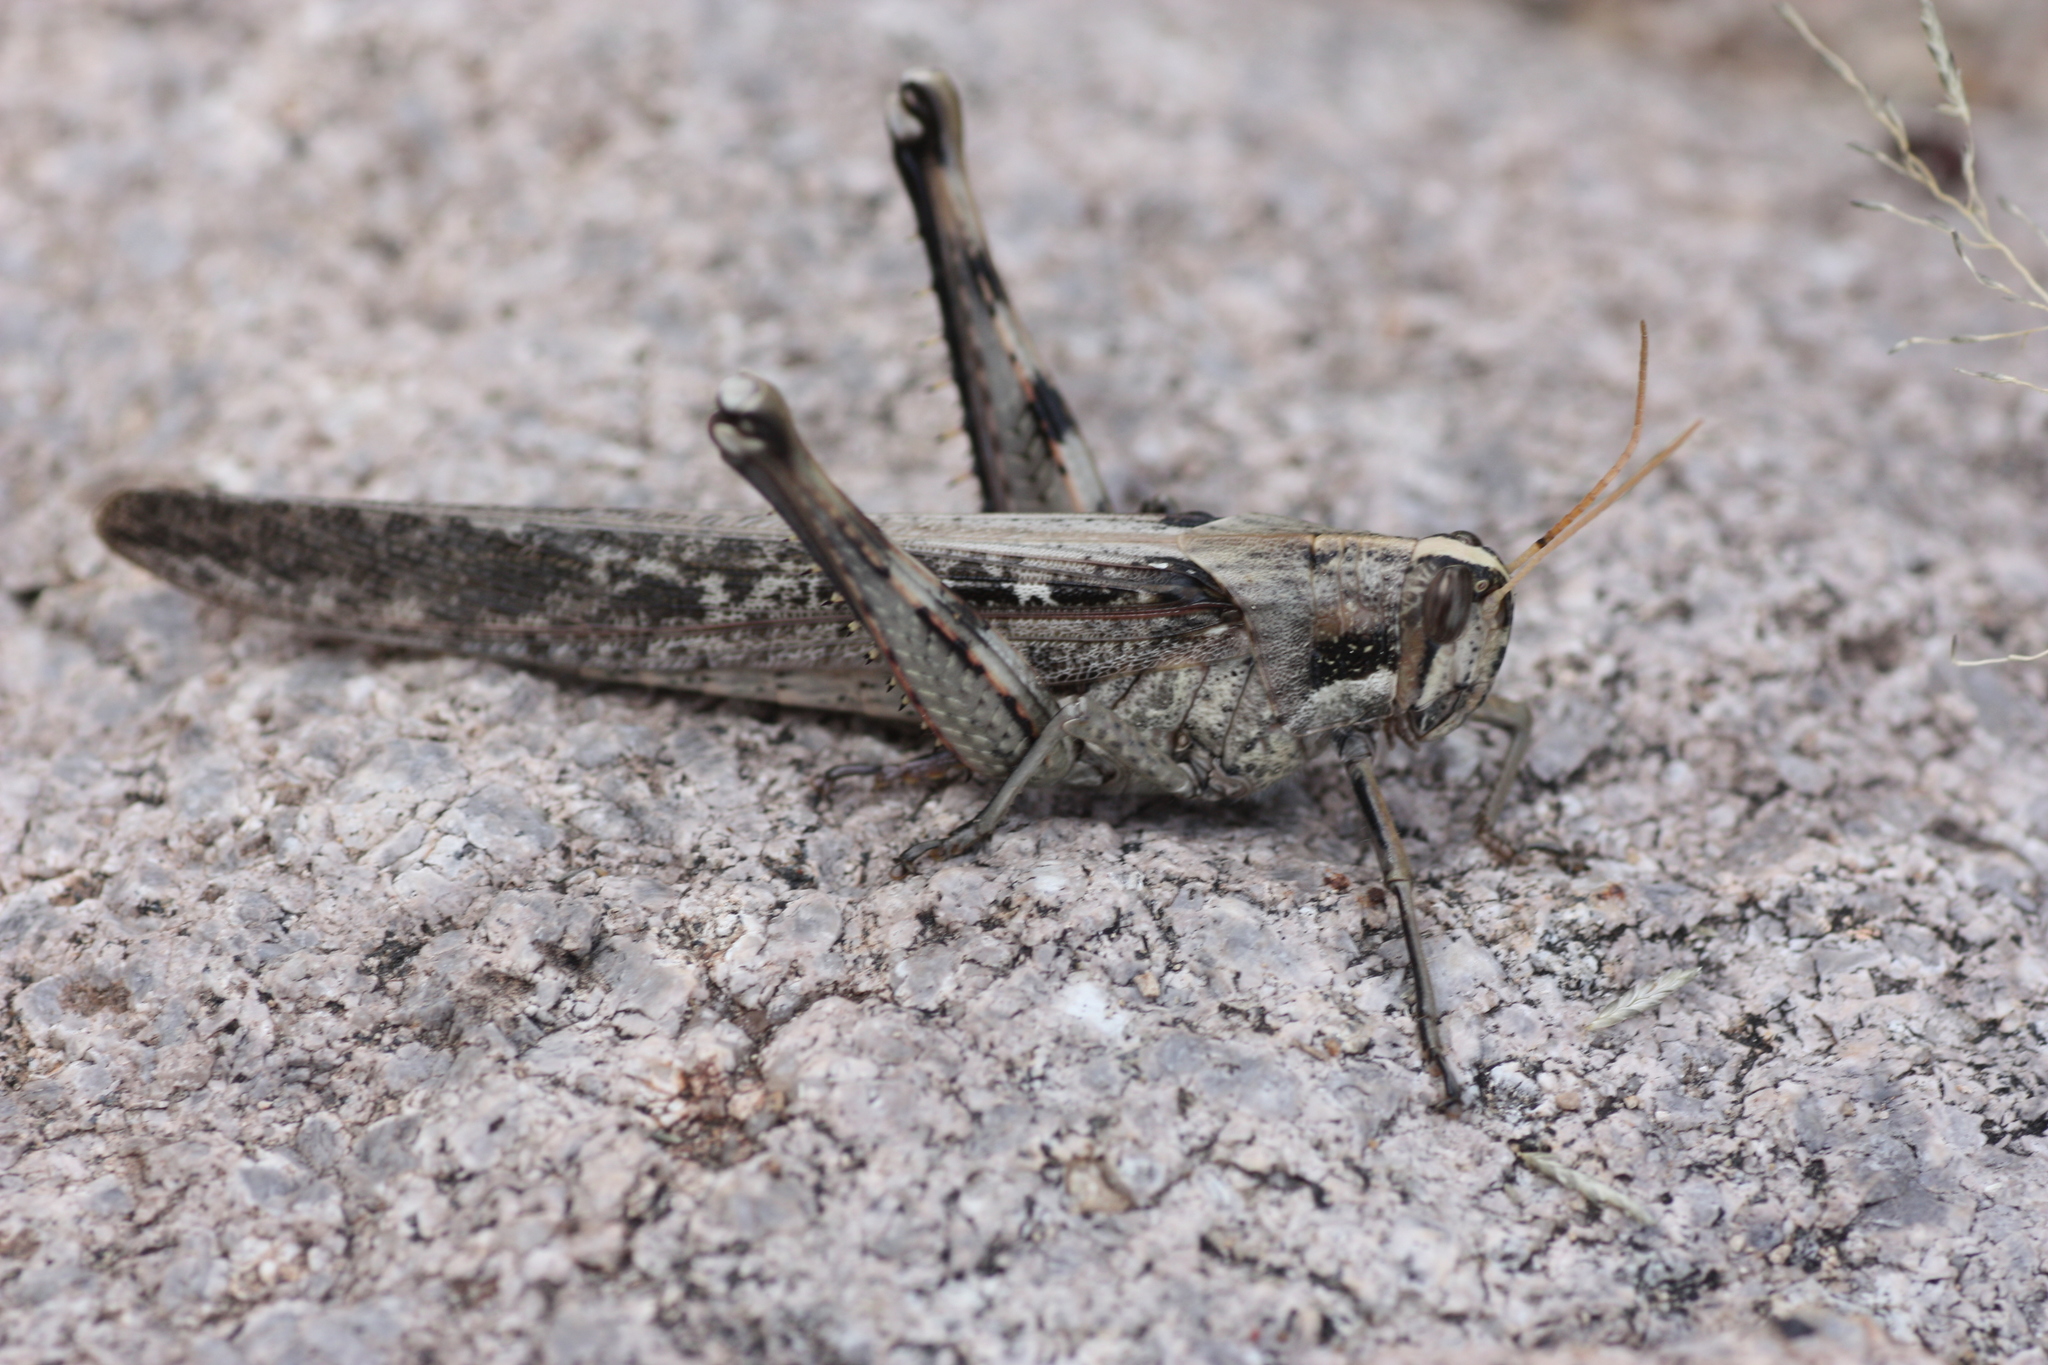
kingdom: Animalia
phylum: Arthropoda
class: Insecta
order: Orthoptera
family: Acrididae
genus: Schistocerca
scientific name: Schistocerca nitens
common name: Vagrant grasshopper
